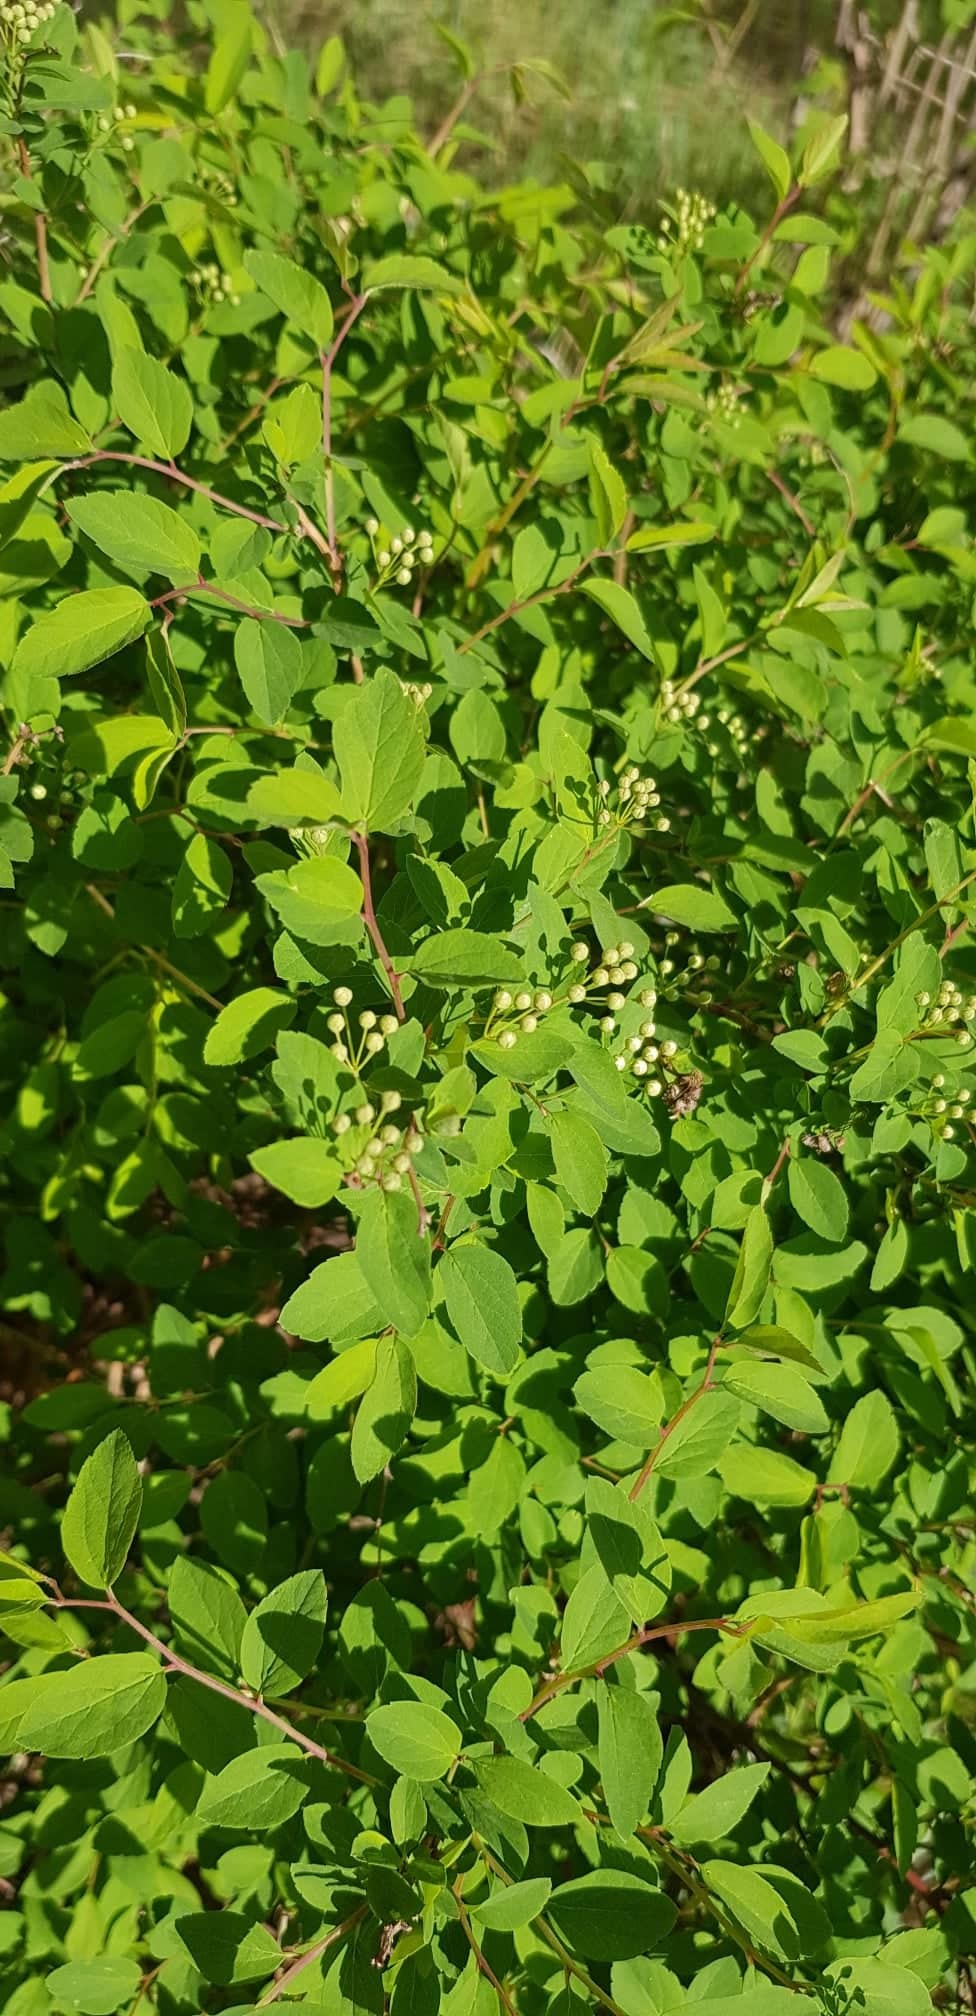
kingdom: Plantae
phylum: Tracheophyta
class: Magnoliopsida
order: Rosales
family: Rosaceae
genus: Spiraea
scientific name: Spiraea media
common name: Russian spiraea
